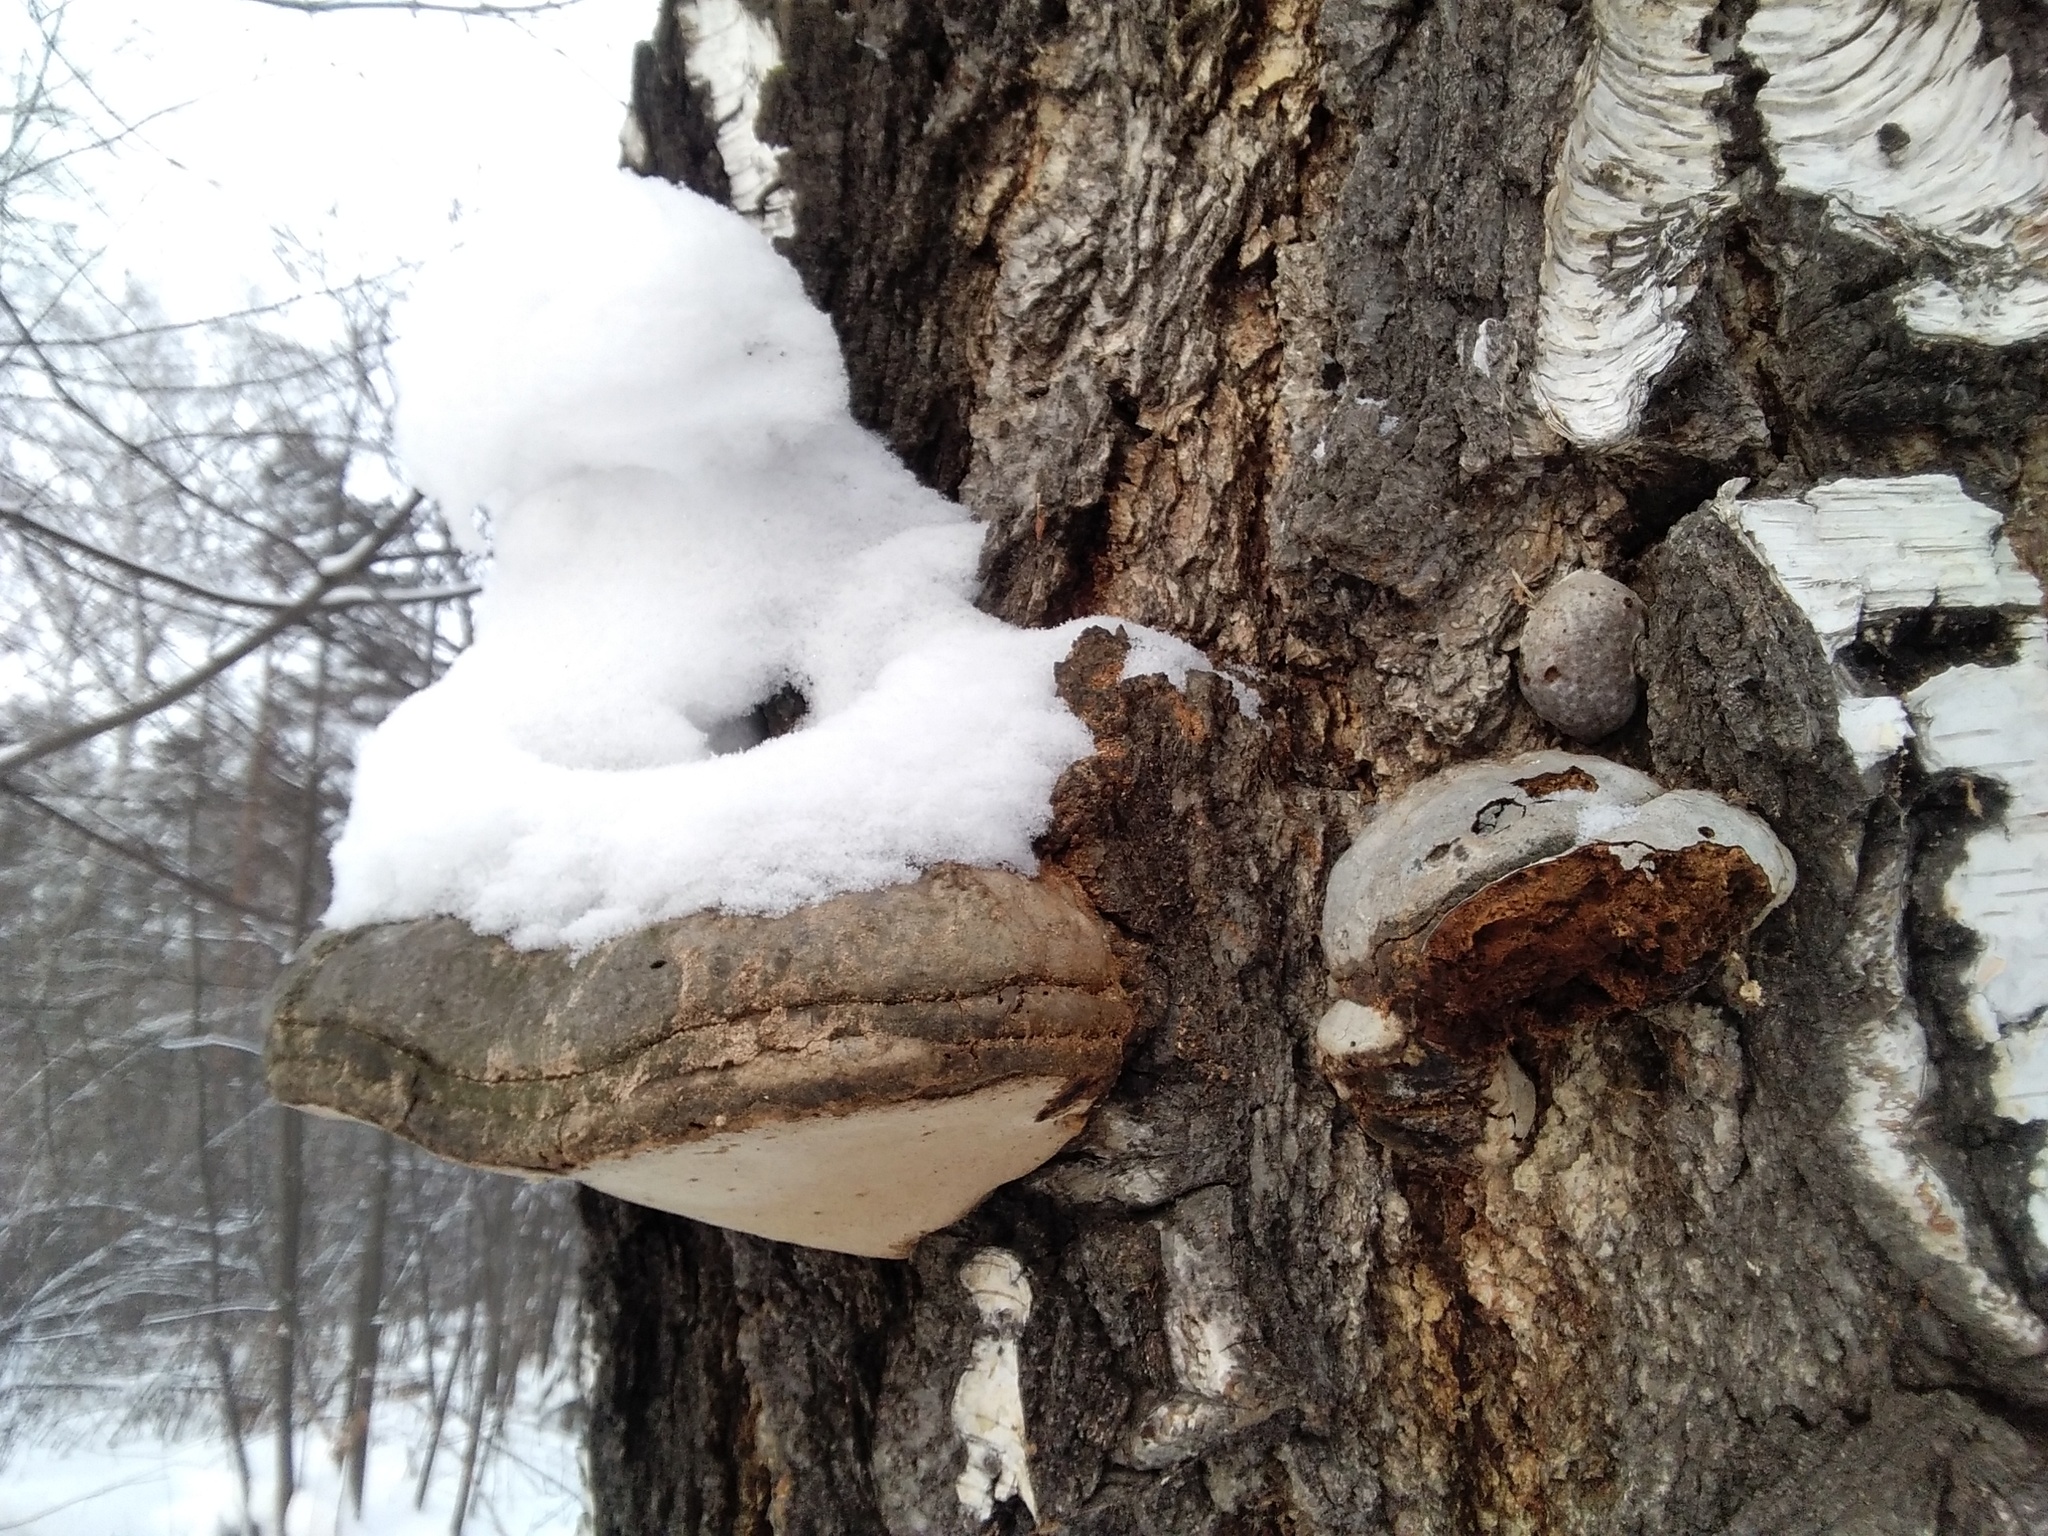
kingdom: Fungi
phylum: Basidiomycota
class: Agaricomycetes
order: Polyporales
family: Polyporaceae
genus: Fomes
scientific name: Fomes fomentarius
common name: Hoof fungus
